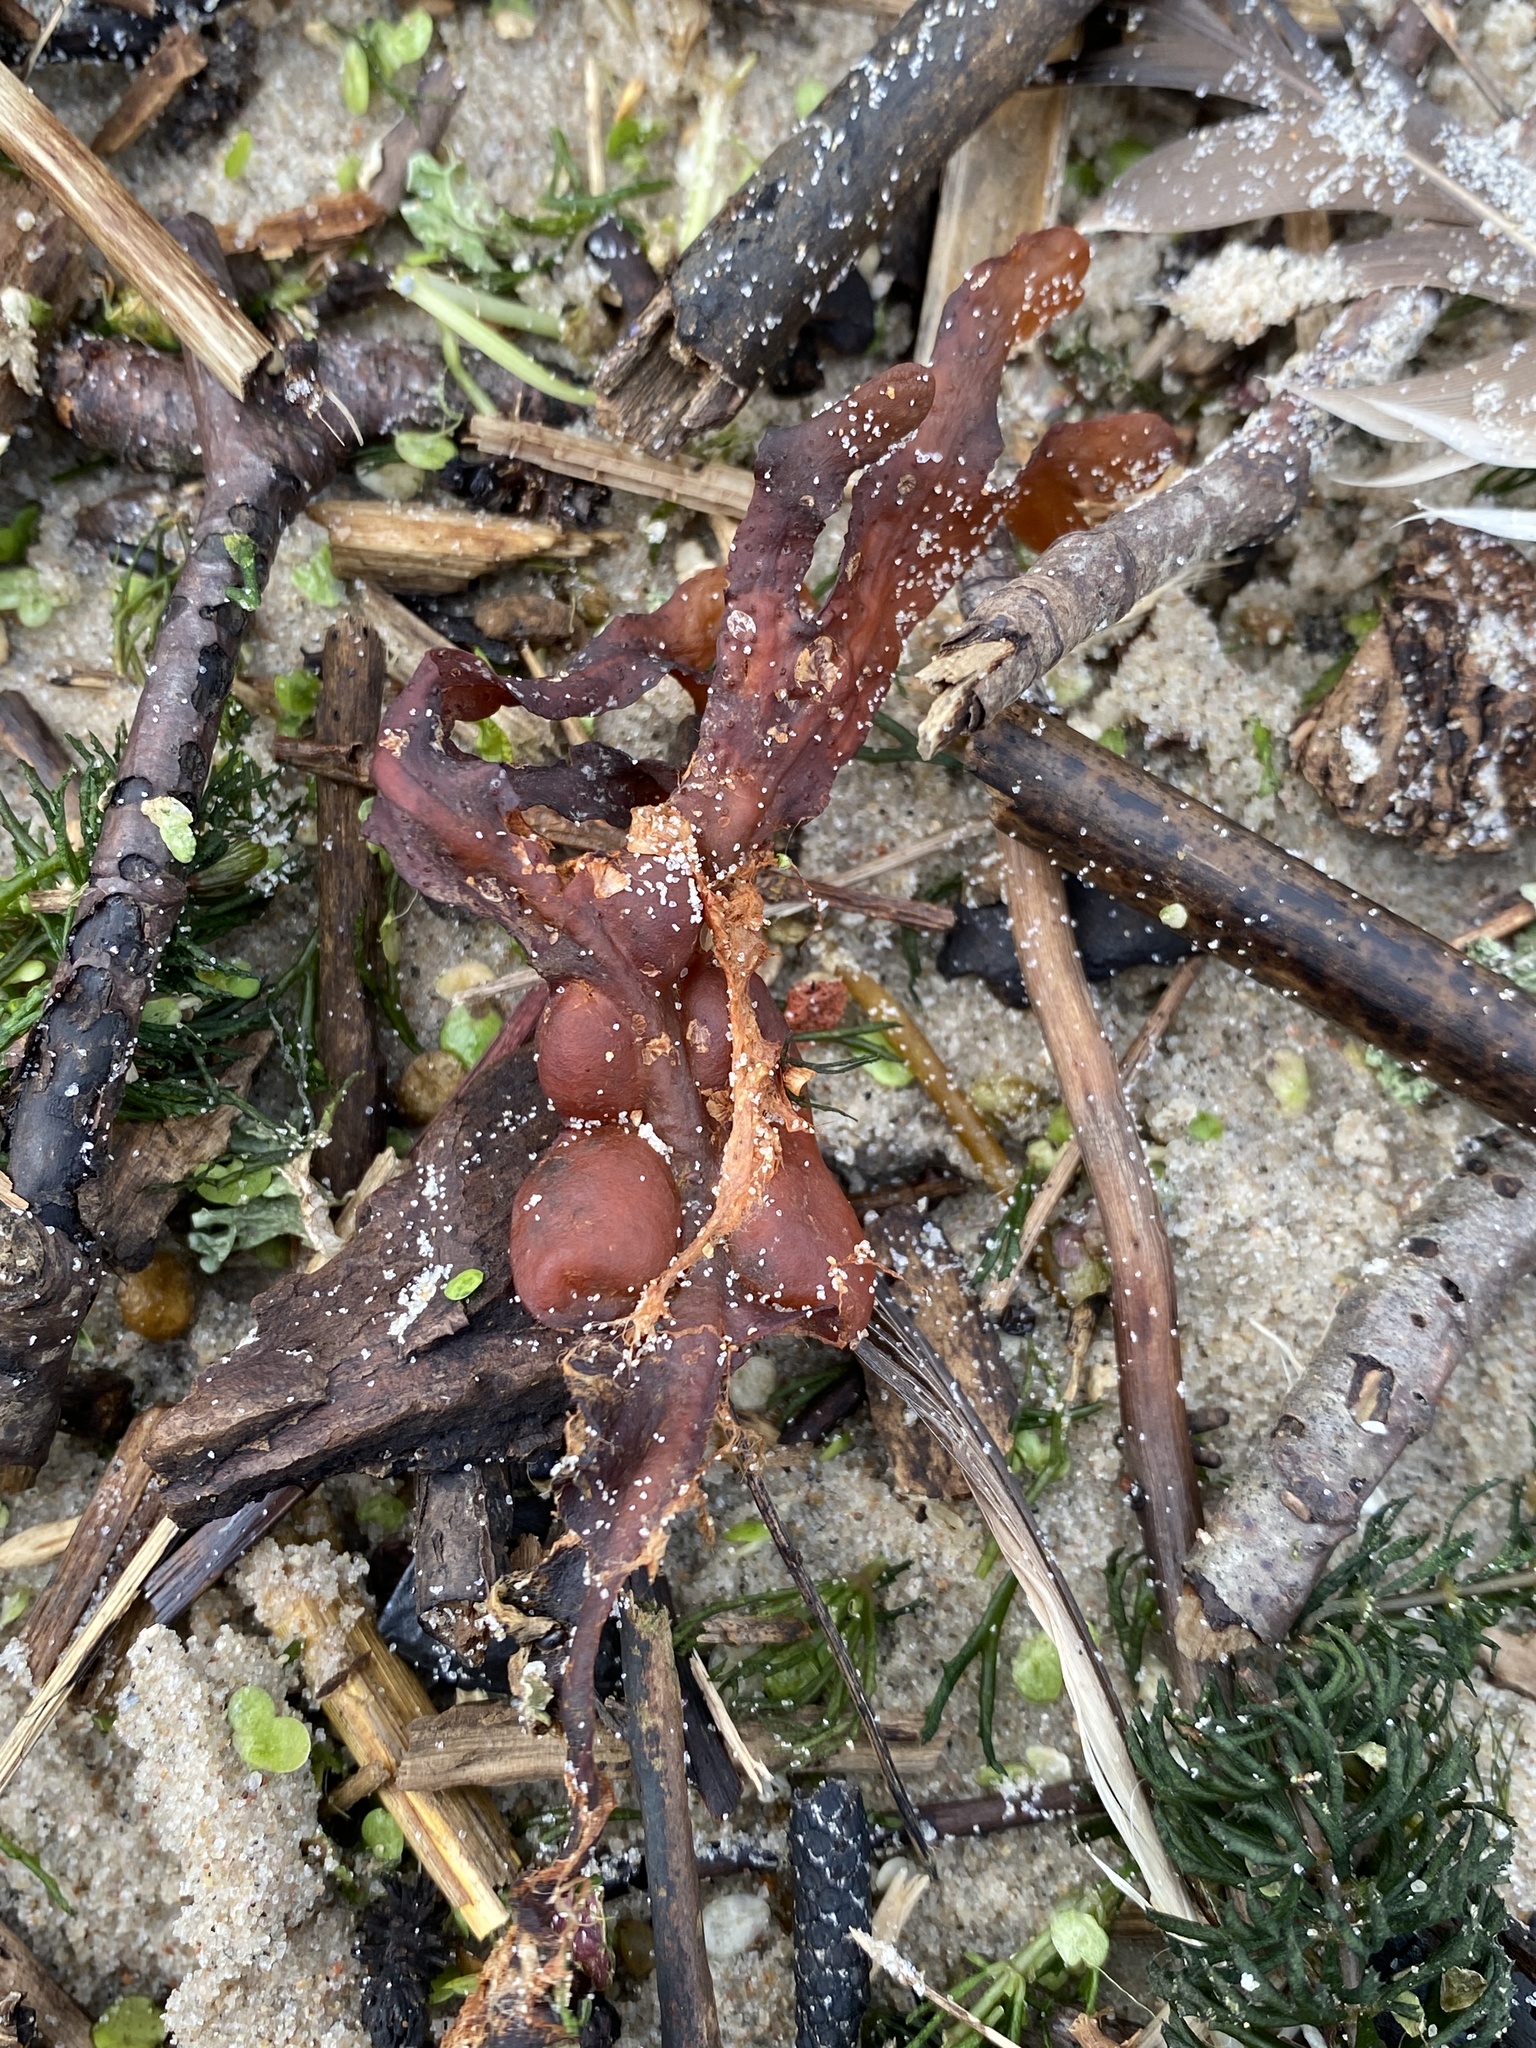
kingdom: Chromista
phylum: Ochrophyta
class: Phaeophyceae
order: Fucales
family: Fucaceae
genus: Fucus
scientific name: Fucus vesiculosus
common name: Bladder wrack
